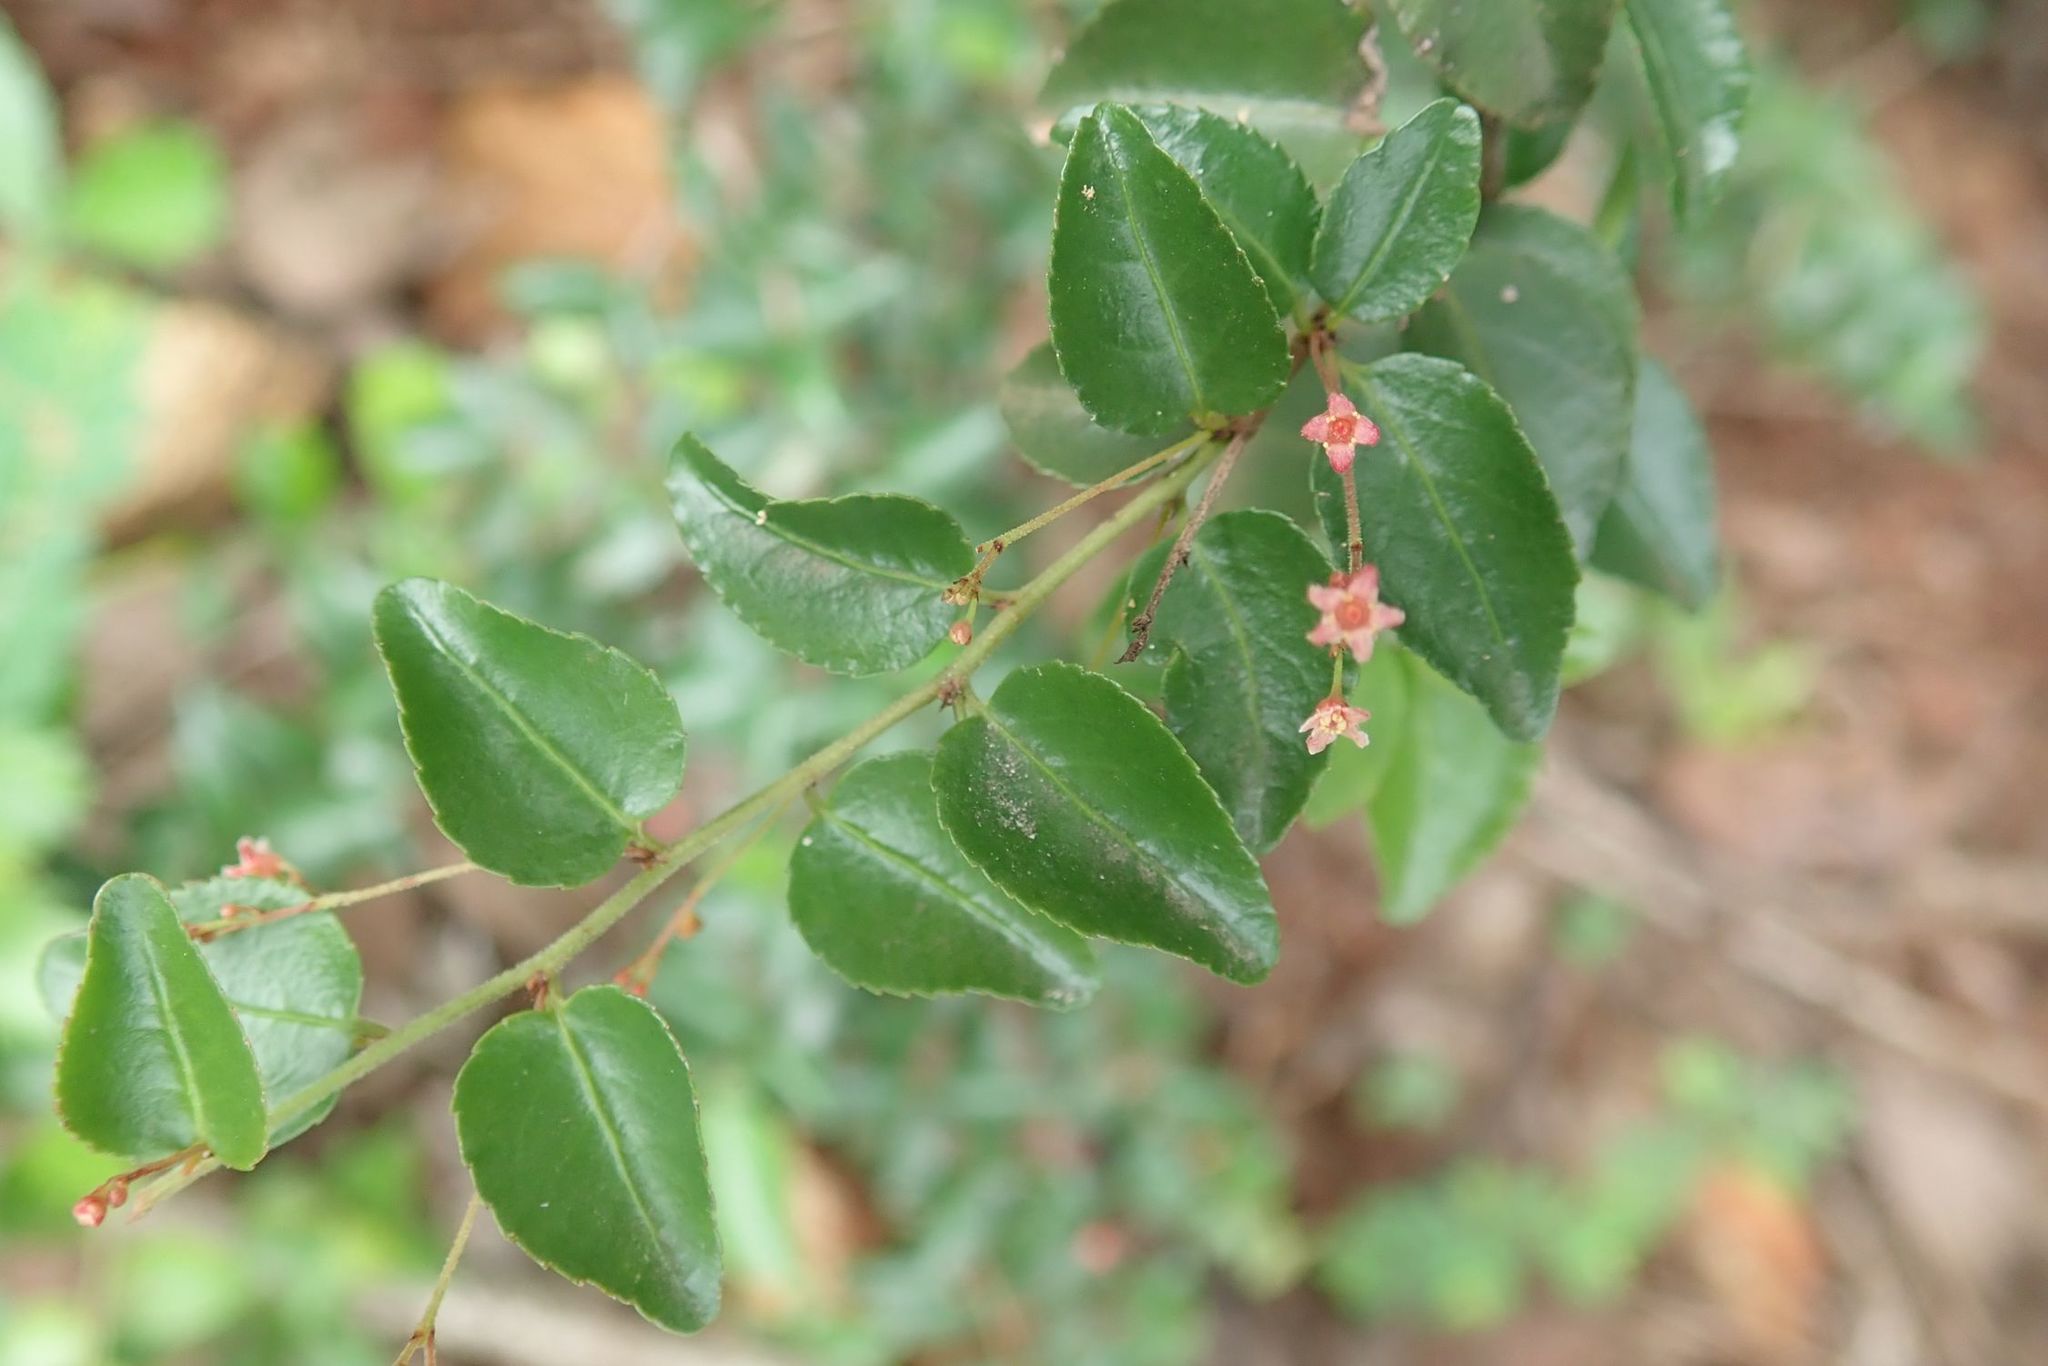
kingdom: Plantae
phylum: Tracheophyta
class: Magnoliopsida
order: Celastrales
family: Celastraceae
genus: Gymnosporia
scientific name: Gymnosporia rubra
